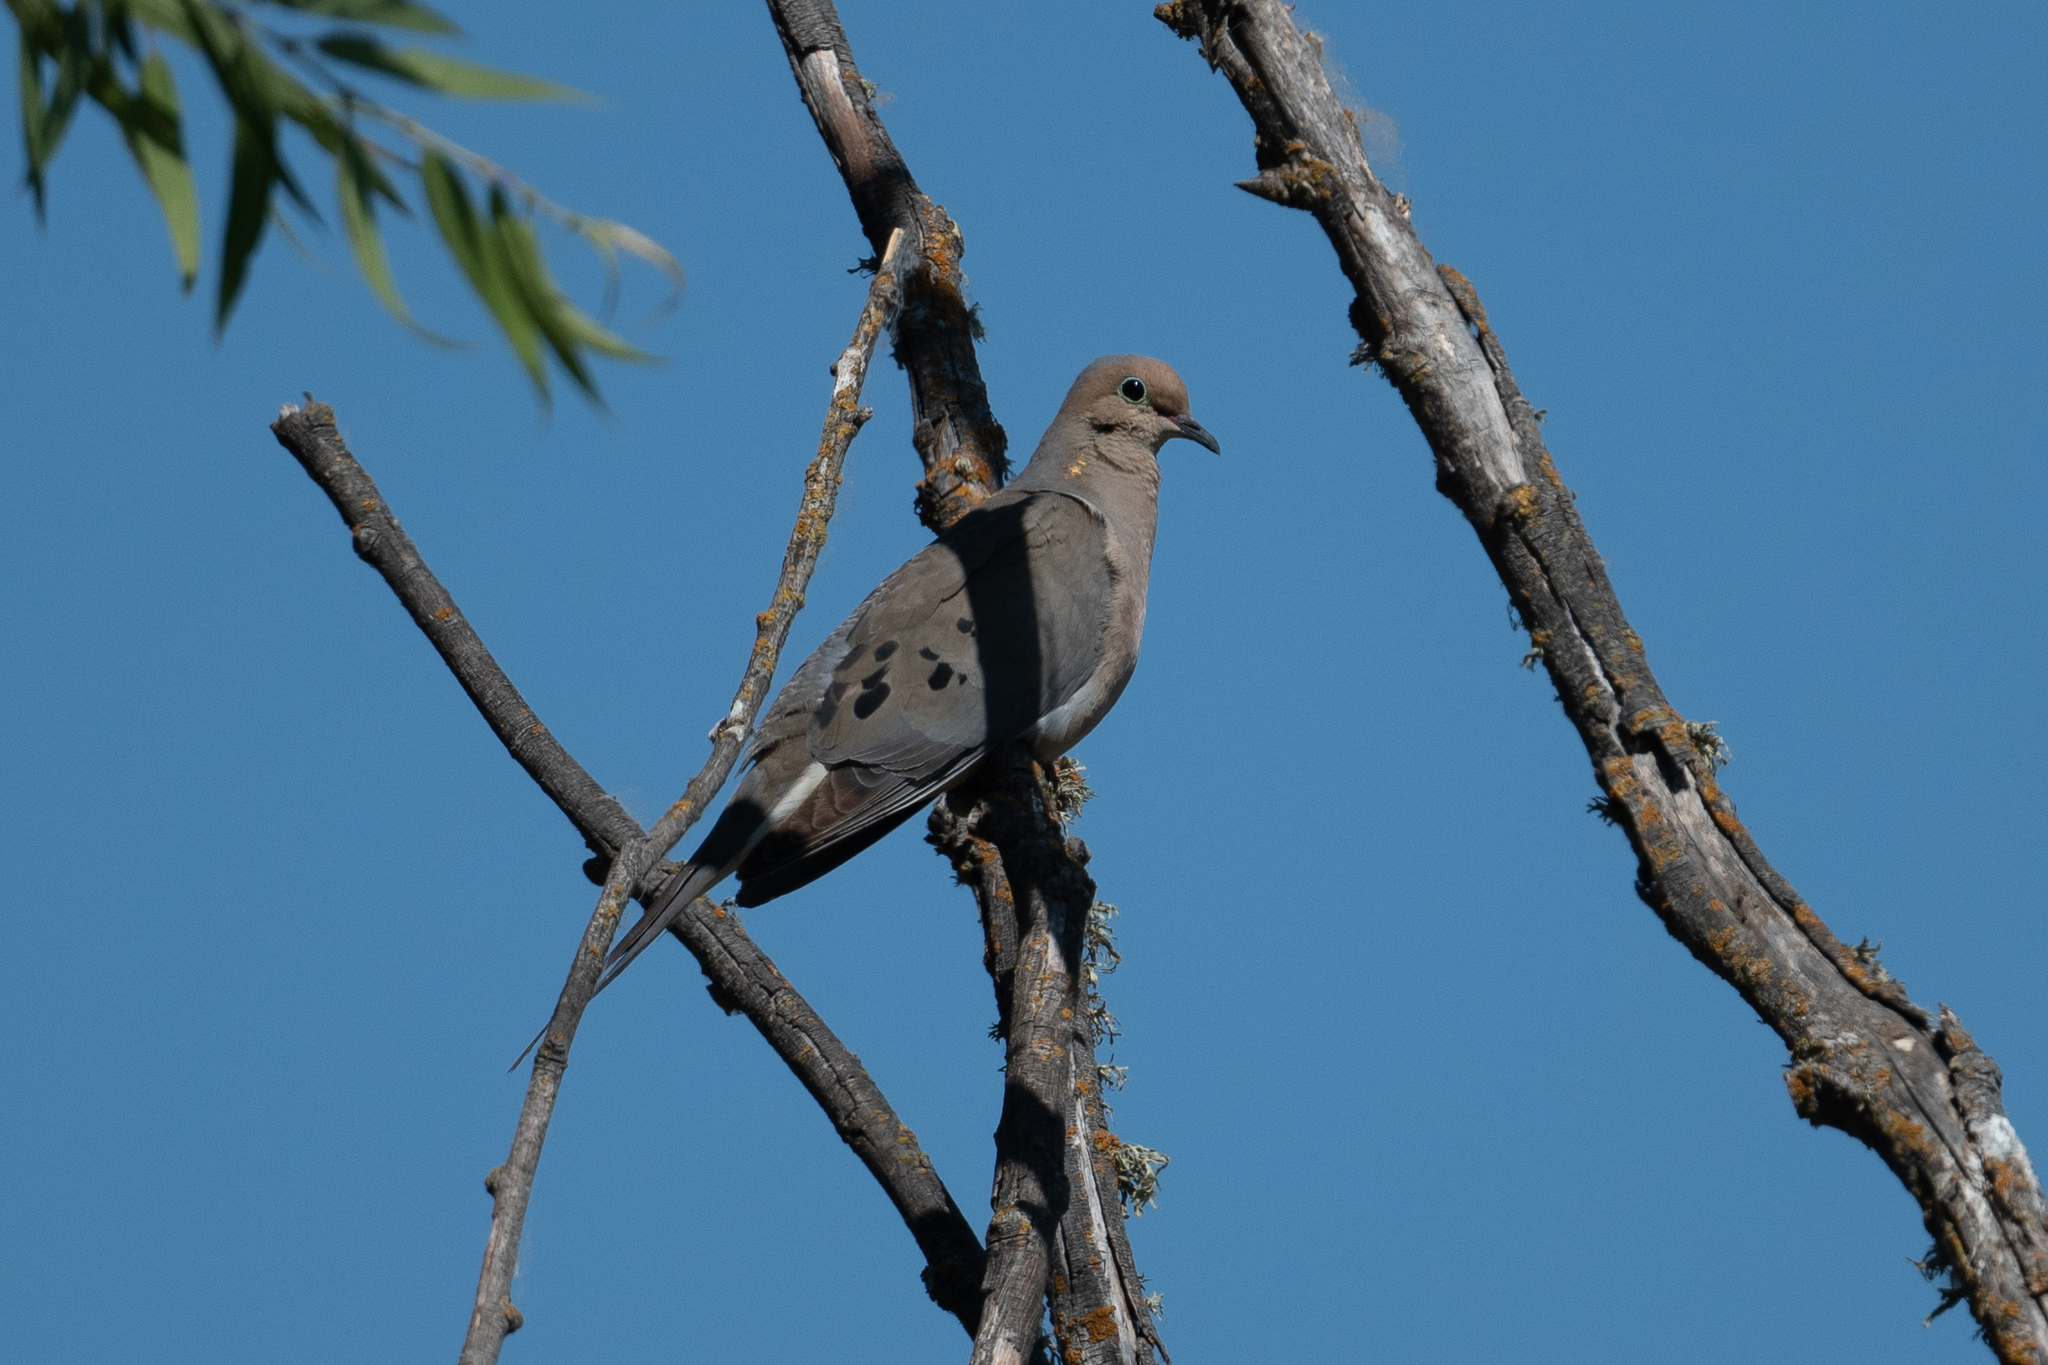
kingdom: Animalia
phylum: Chordata
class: Aves
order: Columbiformes
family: Columbidae
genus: Zenaida
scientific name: Zenaida macroura
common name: Mourning dove
